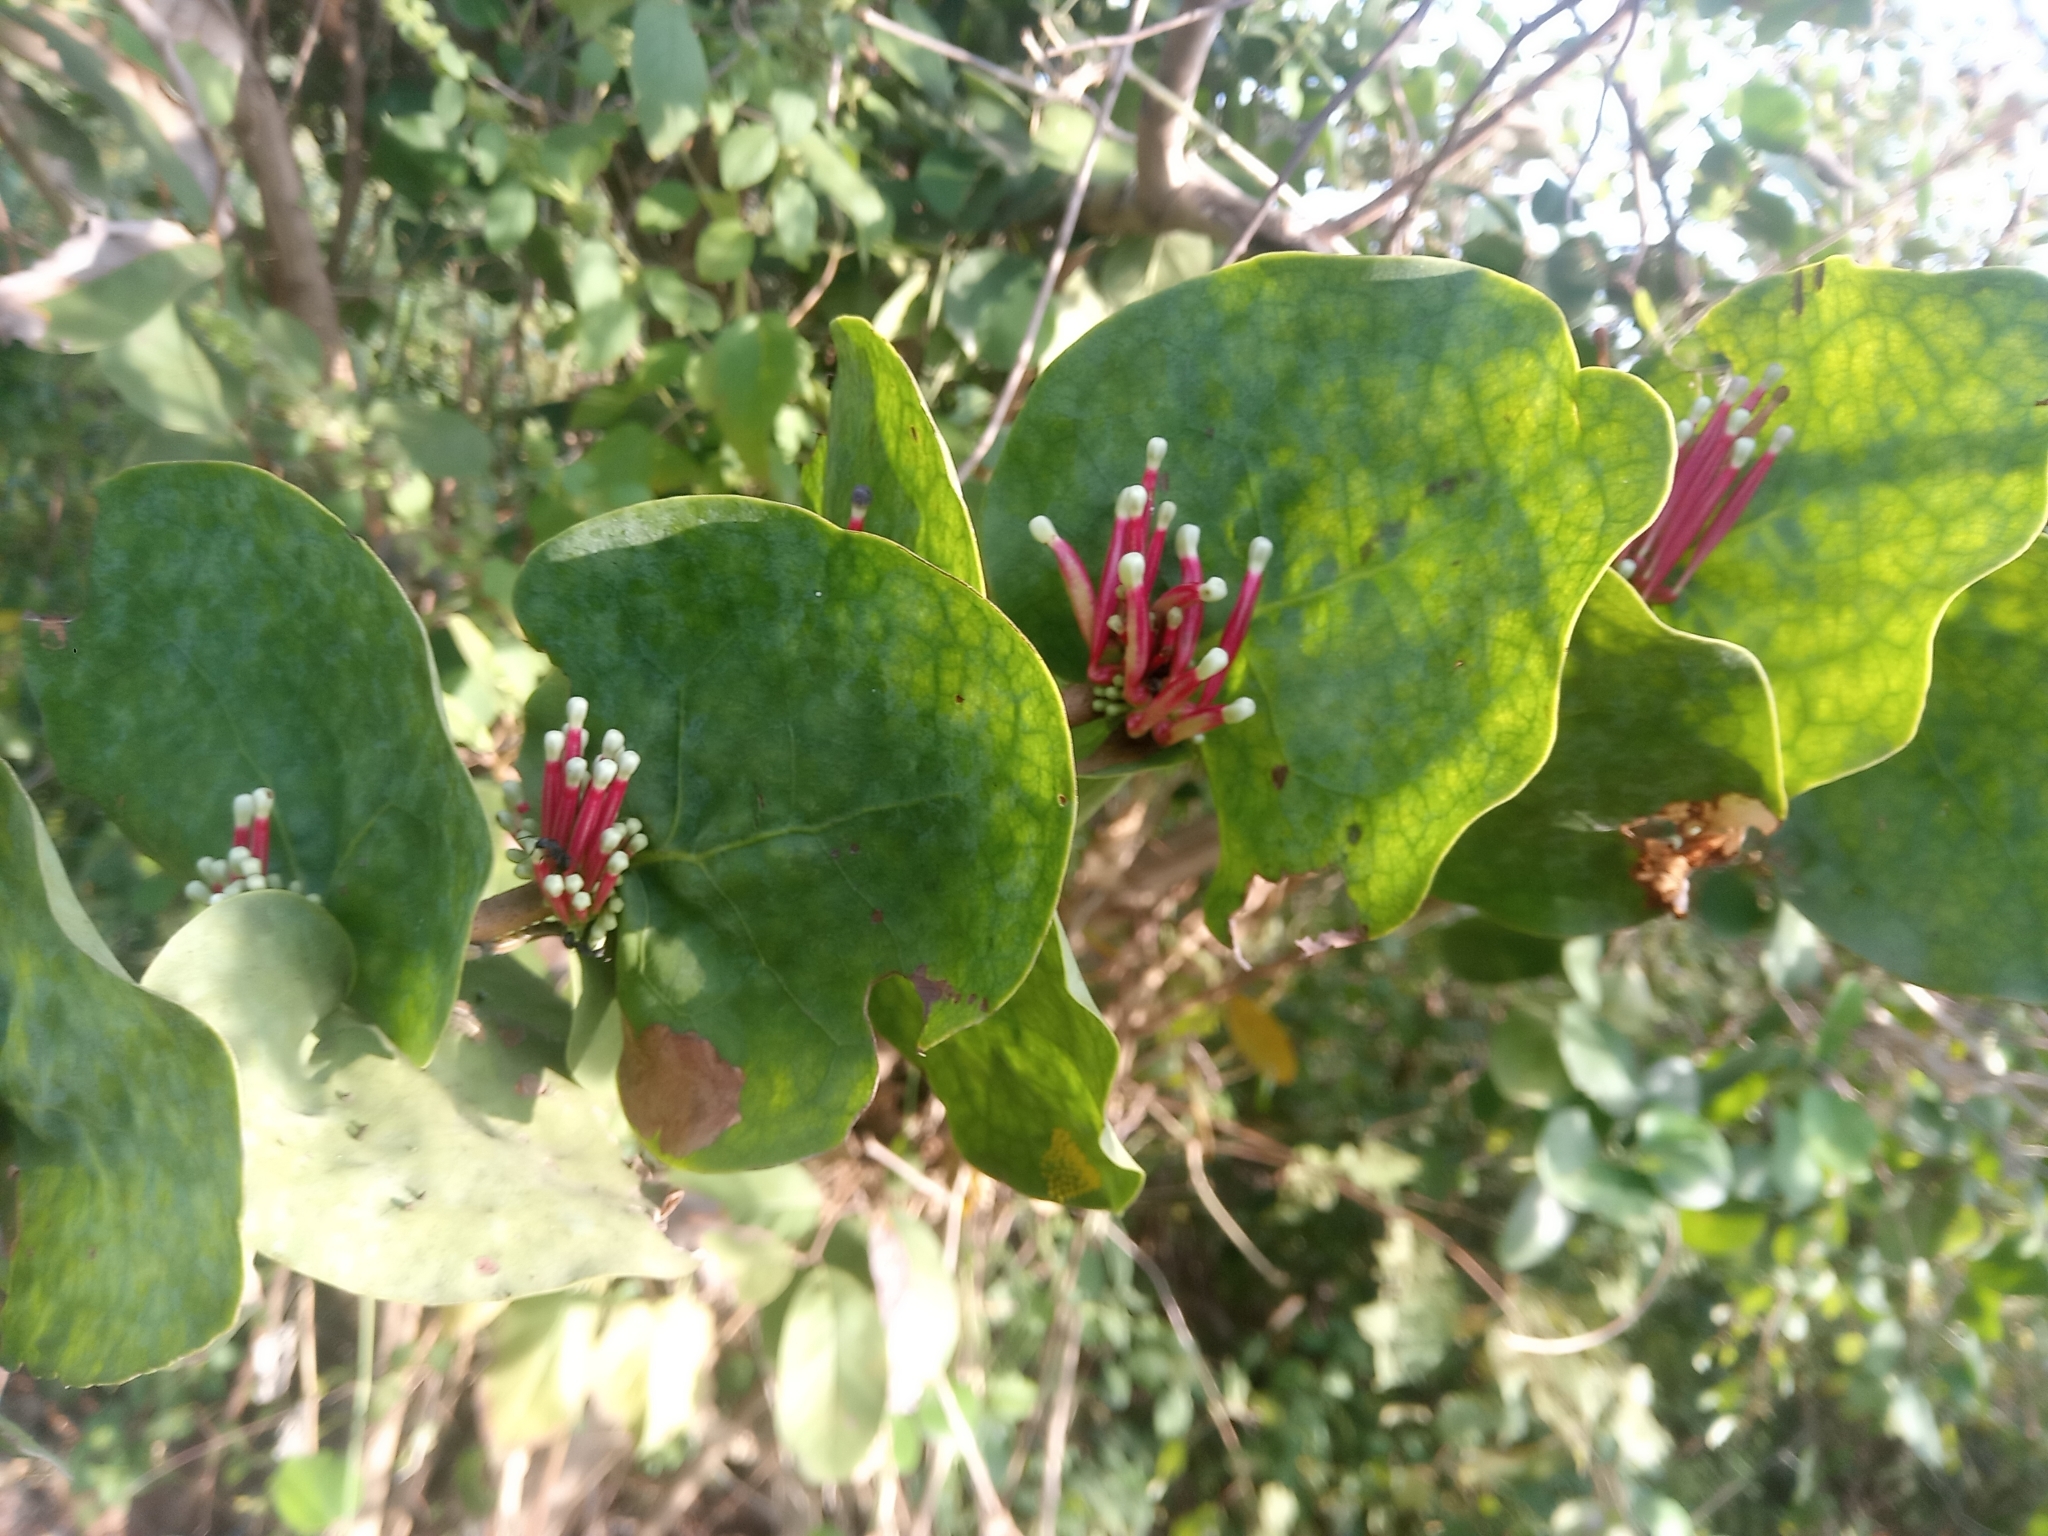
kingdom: Plantae
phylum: Tracheophyta
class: Magnoliopsida
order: Santalales
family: Loranthaceae
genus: Tapinanthus
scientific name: Tapinanthus cordifolius
